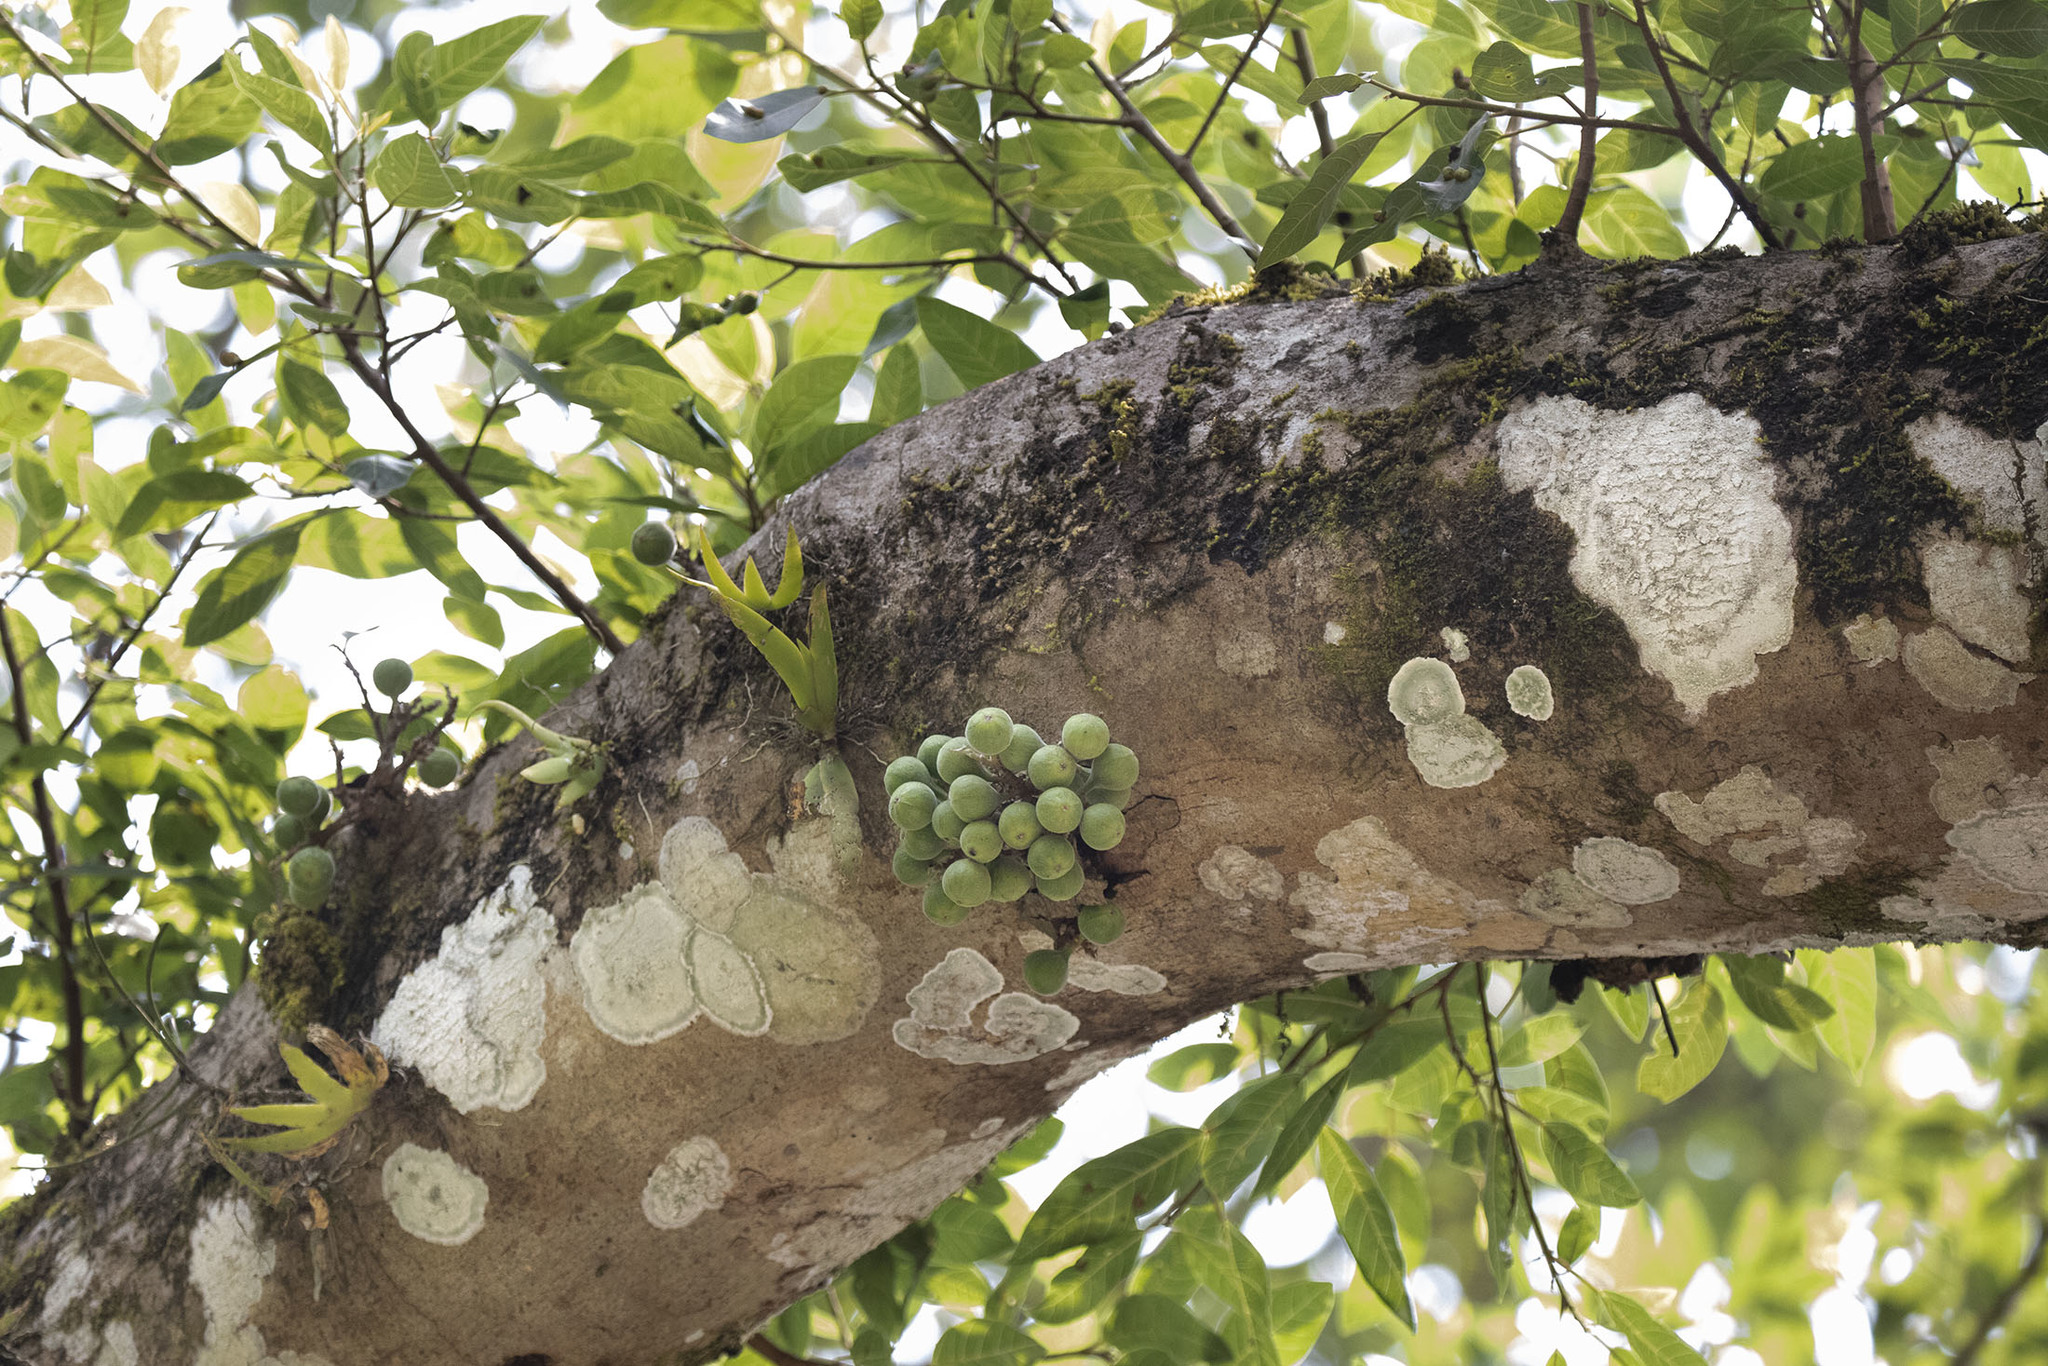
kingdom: Plantae
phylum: Tracheophyta
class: Magnoliopsida
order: Rosales
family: Moraceae
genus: Ficus
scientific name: Ficus racemosa
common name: Cluster fig
